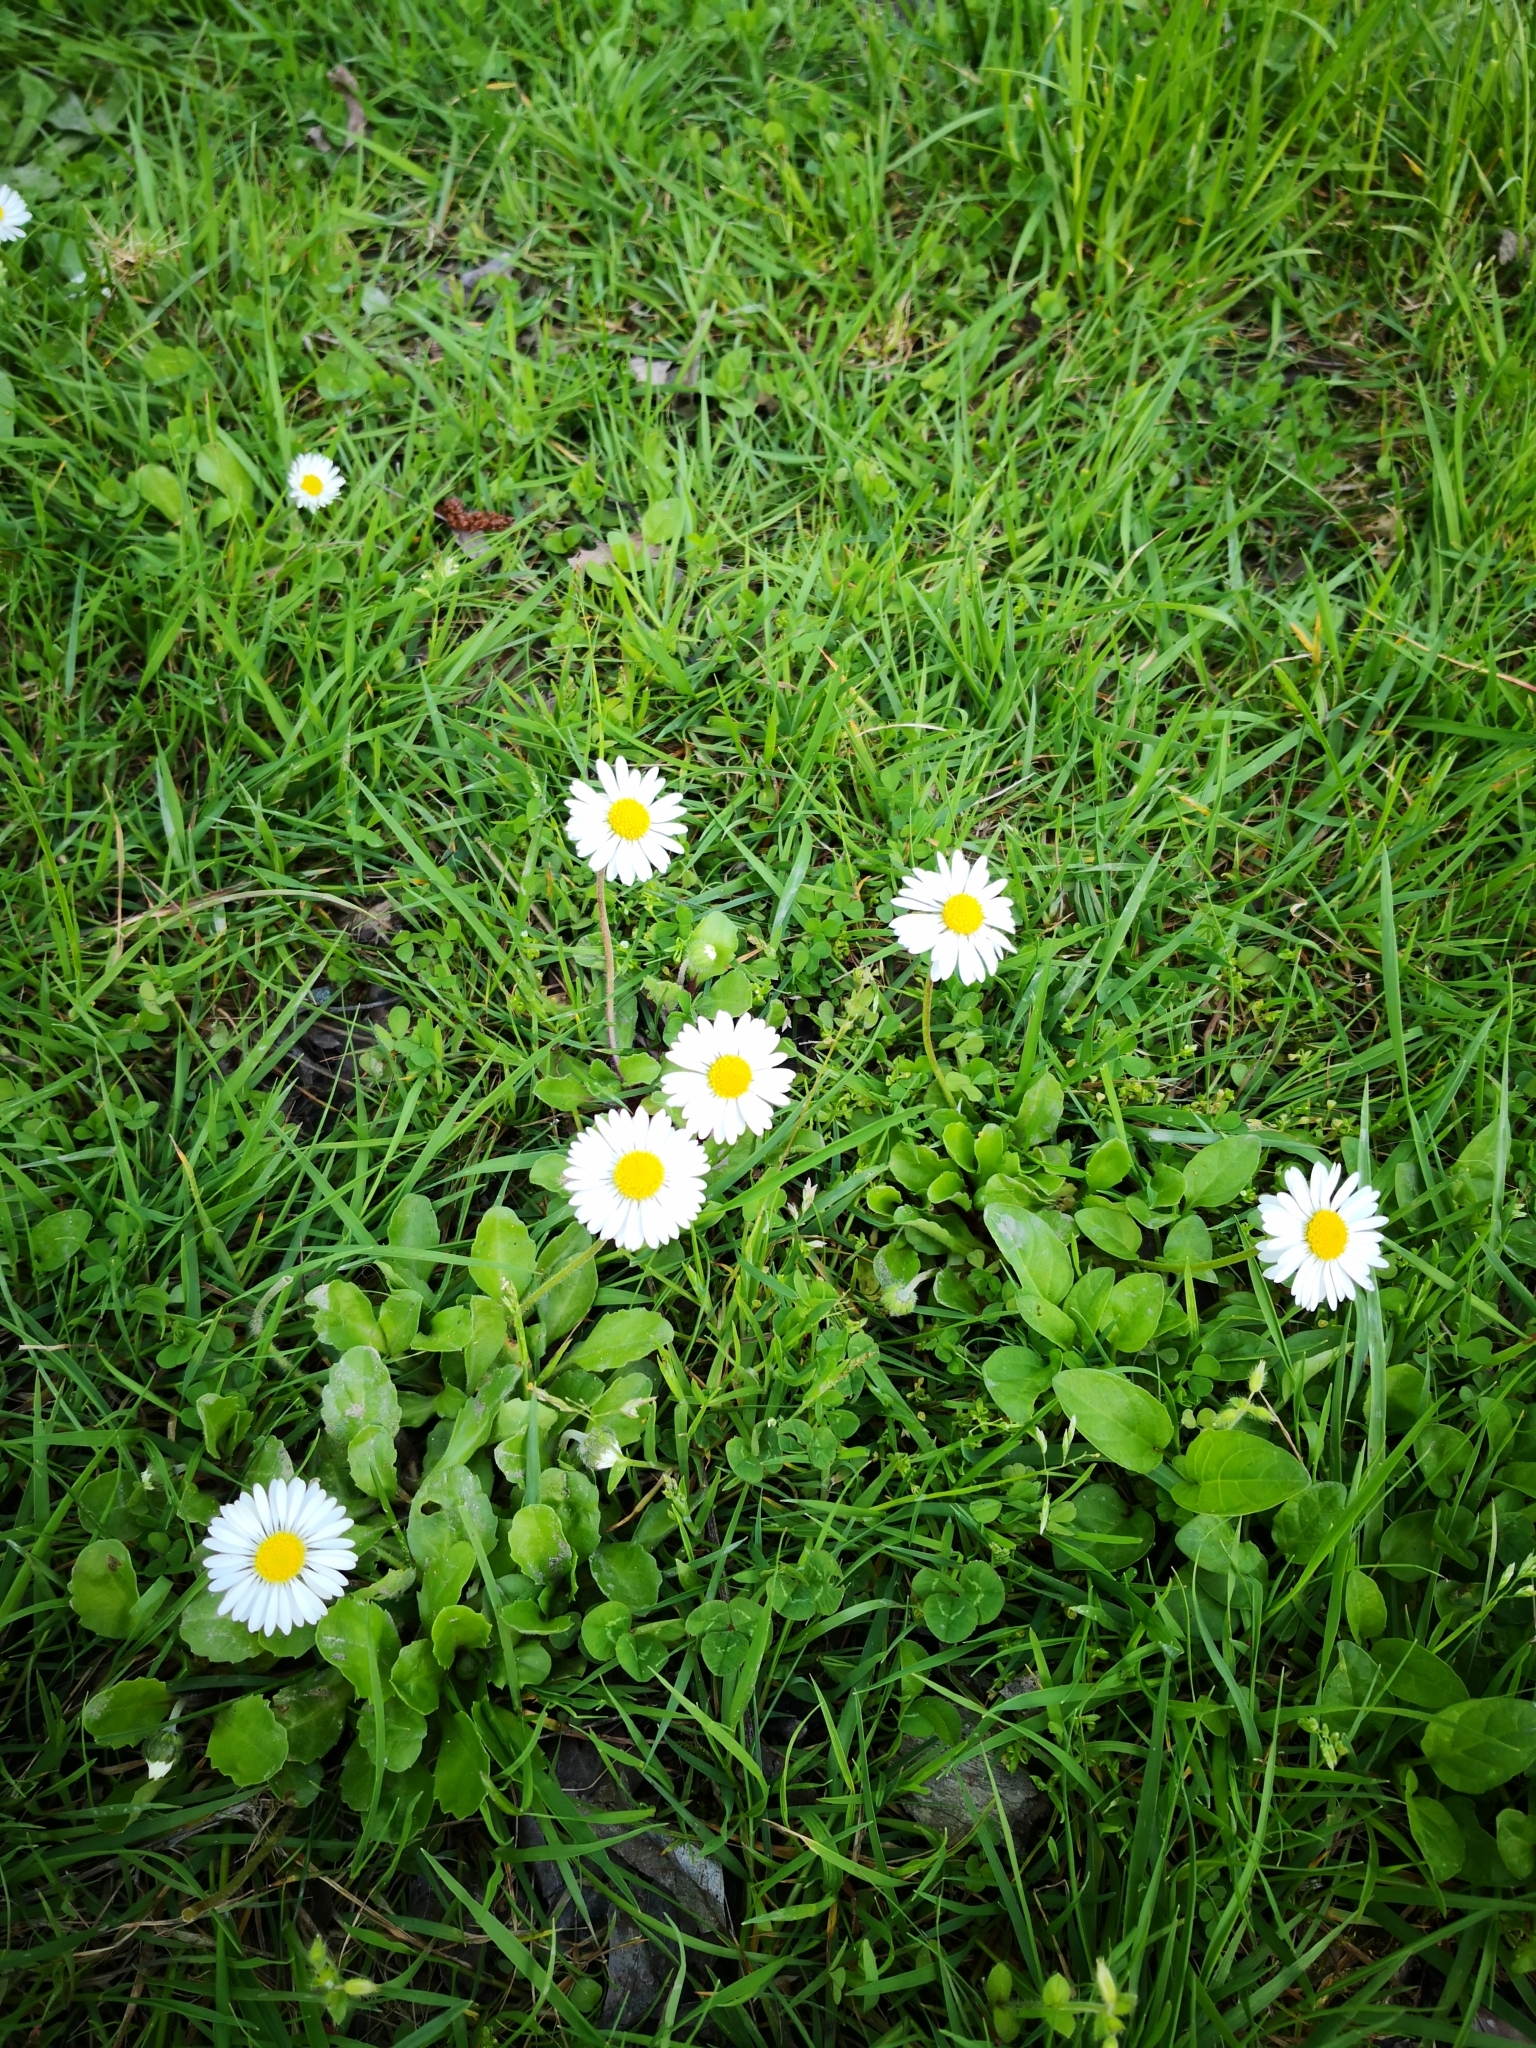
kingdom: Plantae
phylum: Tracheophyta
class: Magnoliopsida
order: Asterales
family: Asteraceae
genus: Bellis
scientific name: Bellis perennis
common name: Lawndaisy
